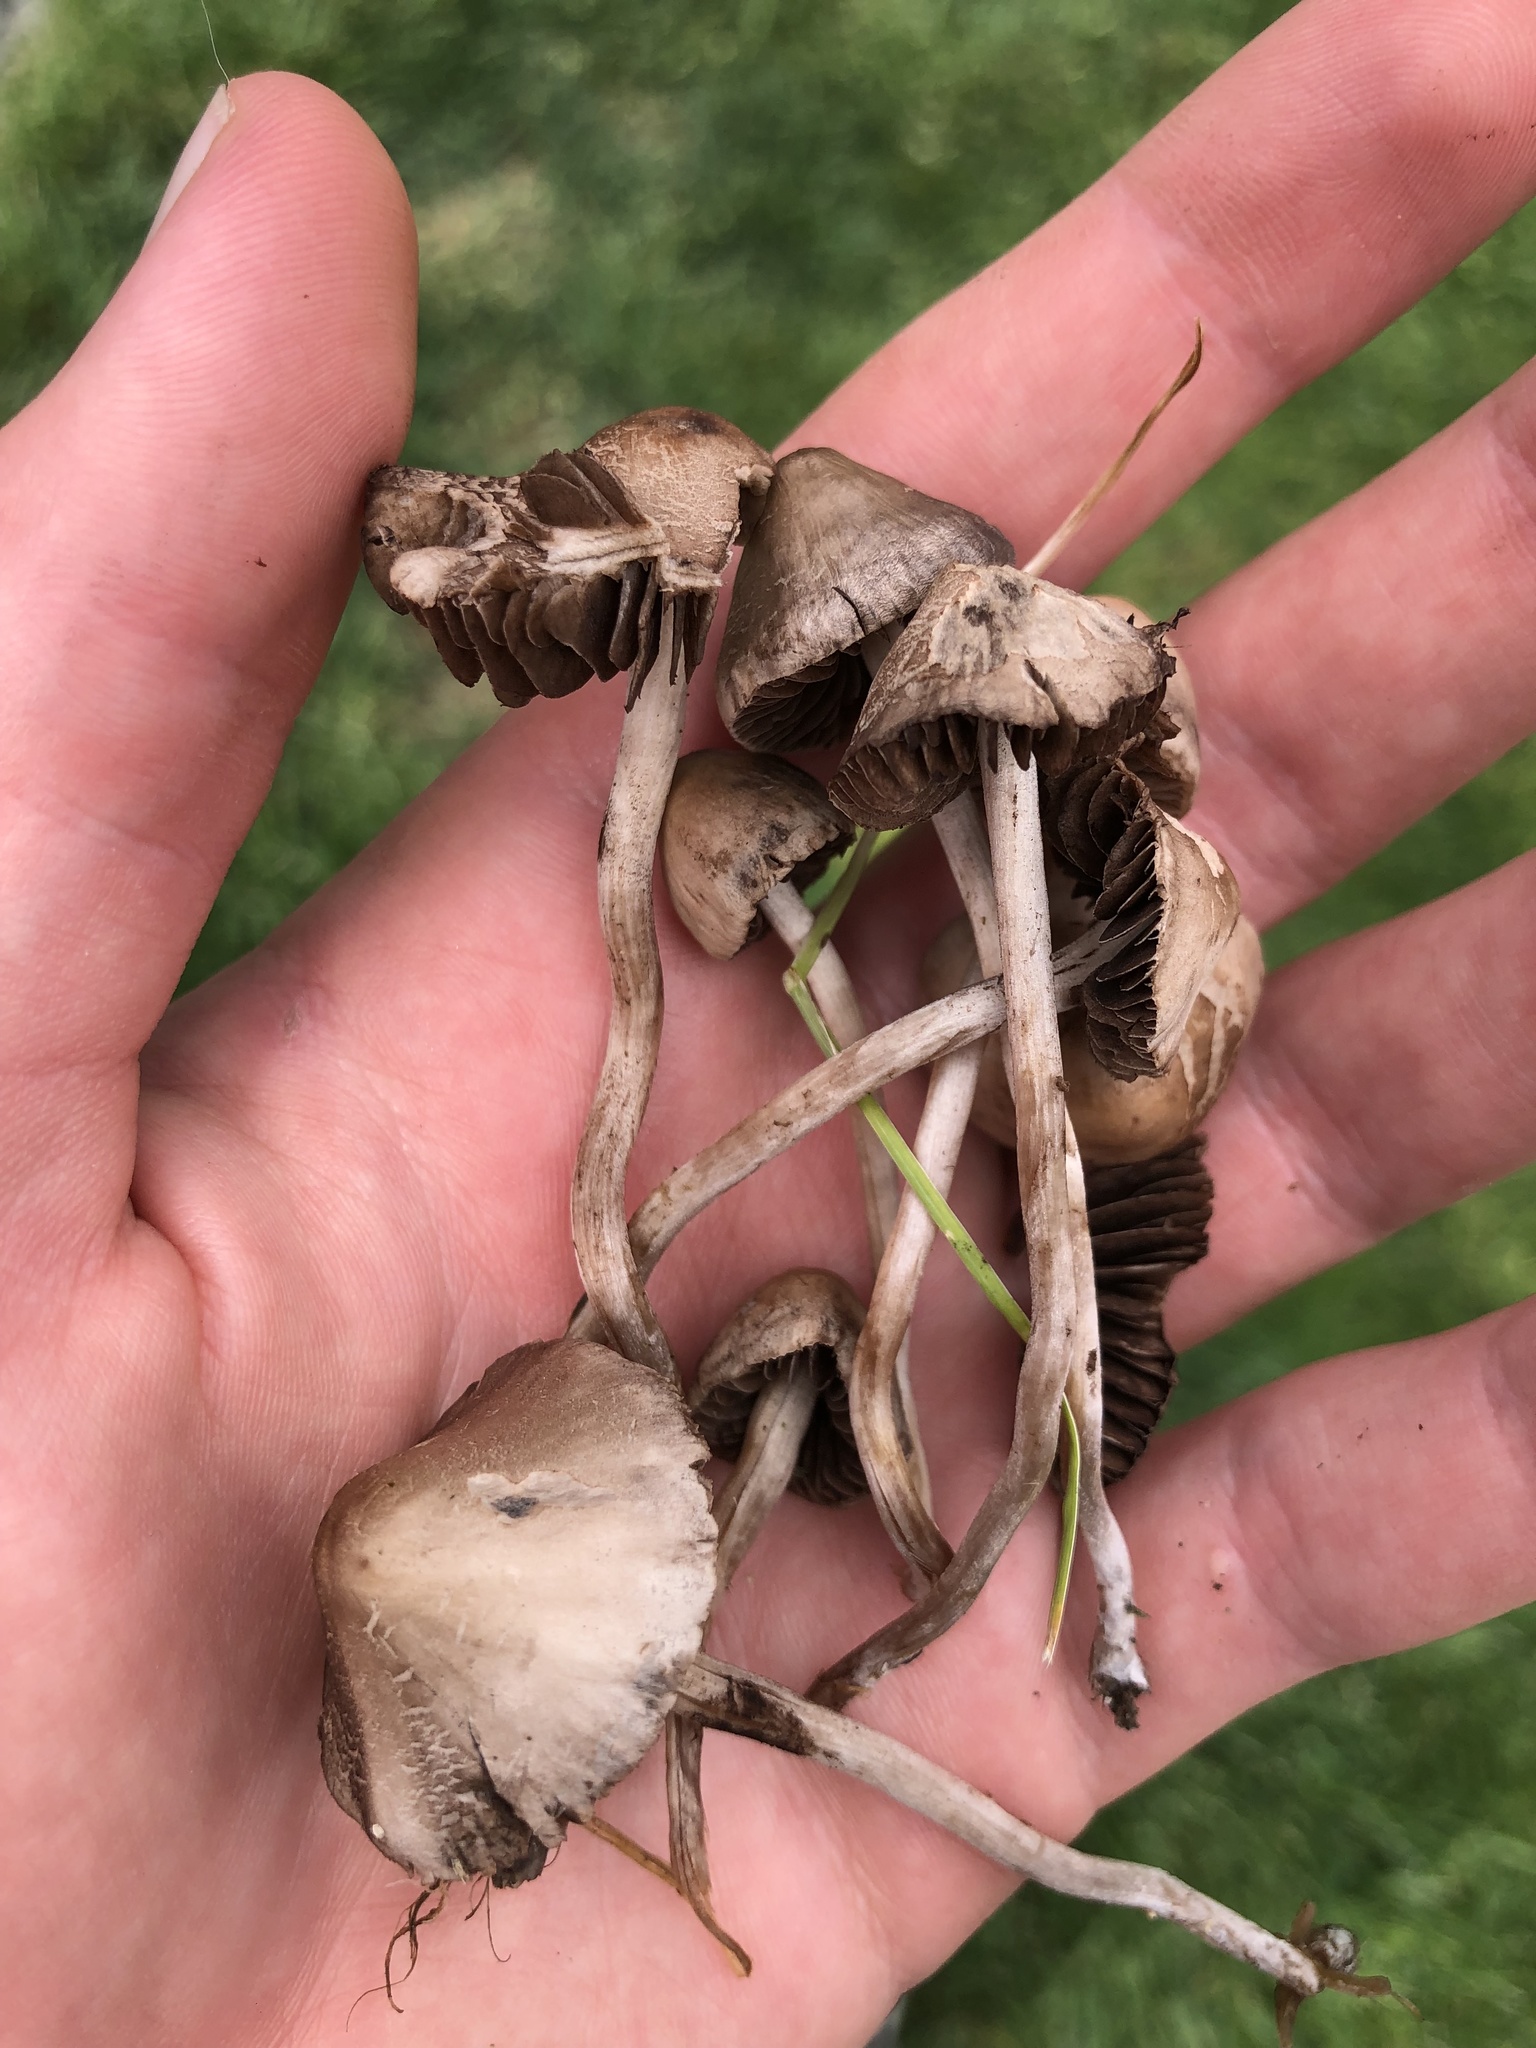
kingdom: Fungi
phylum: Basidiomycota
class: Agaricomycetes
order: Agaricales
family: Bolbitiaceae
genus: Panaeolina
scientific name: Panaeolina foenisecii
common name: Brown hay cap
